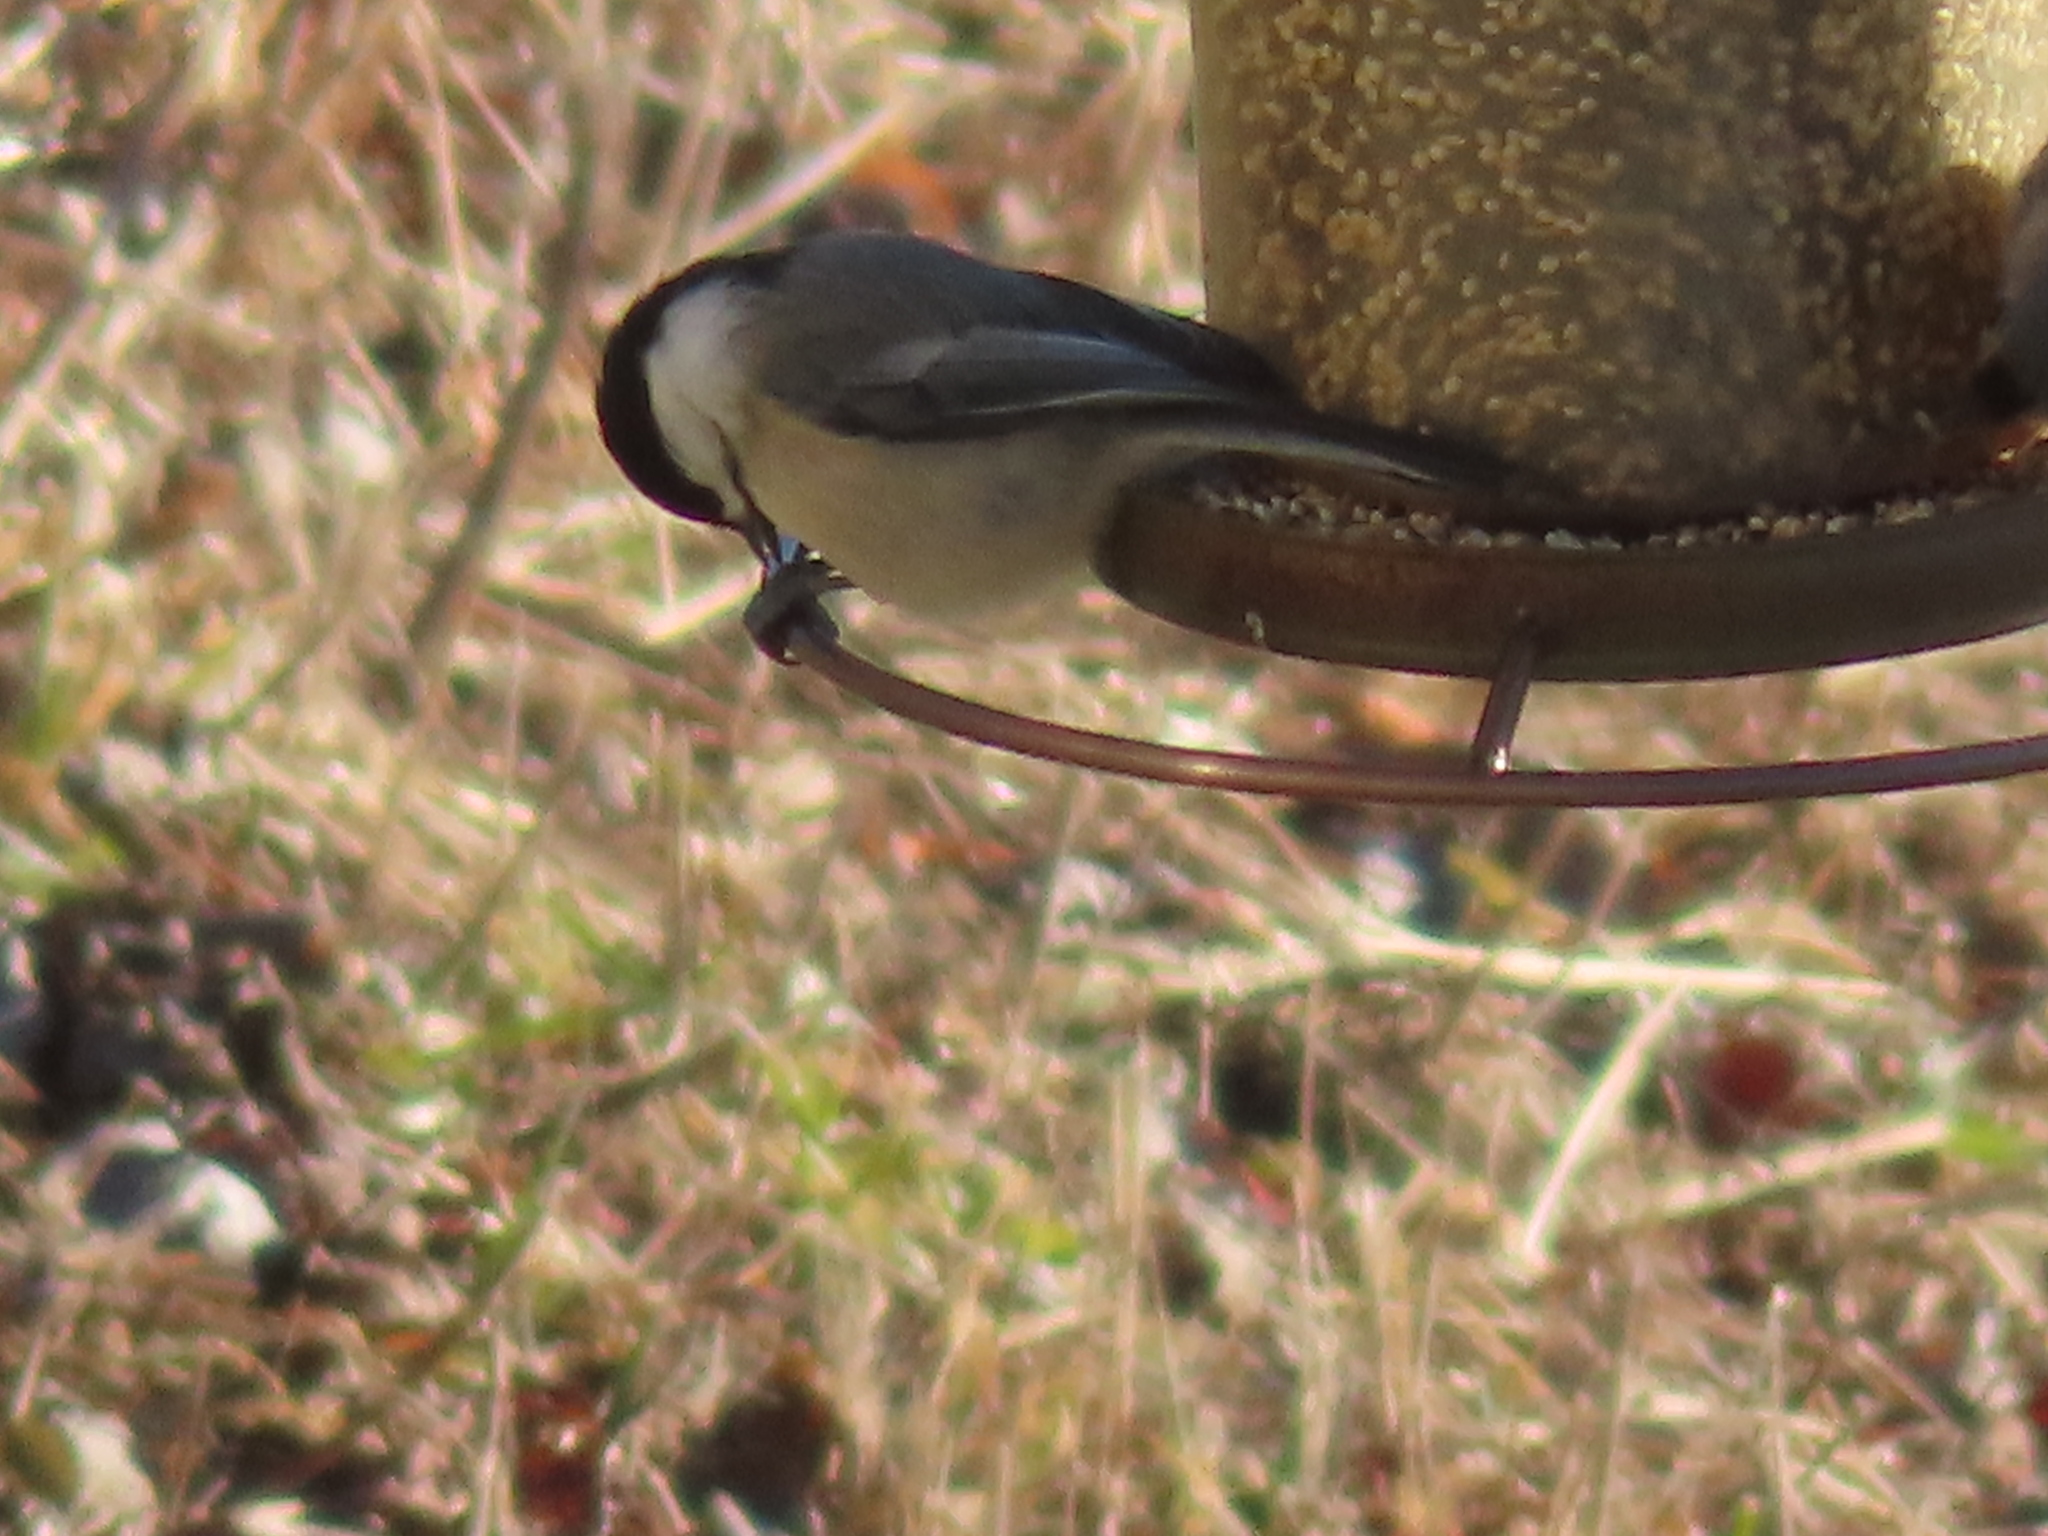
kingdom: Animalia
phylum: Chordata
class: Aves
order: Passeriformes
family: Paridae
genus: Poecile
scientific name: Poecile atricapillus
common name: Black-capped chickadee
